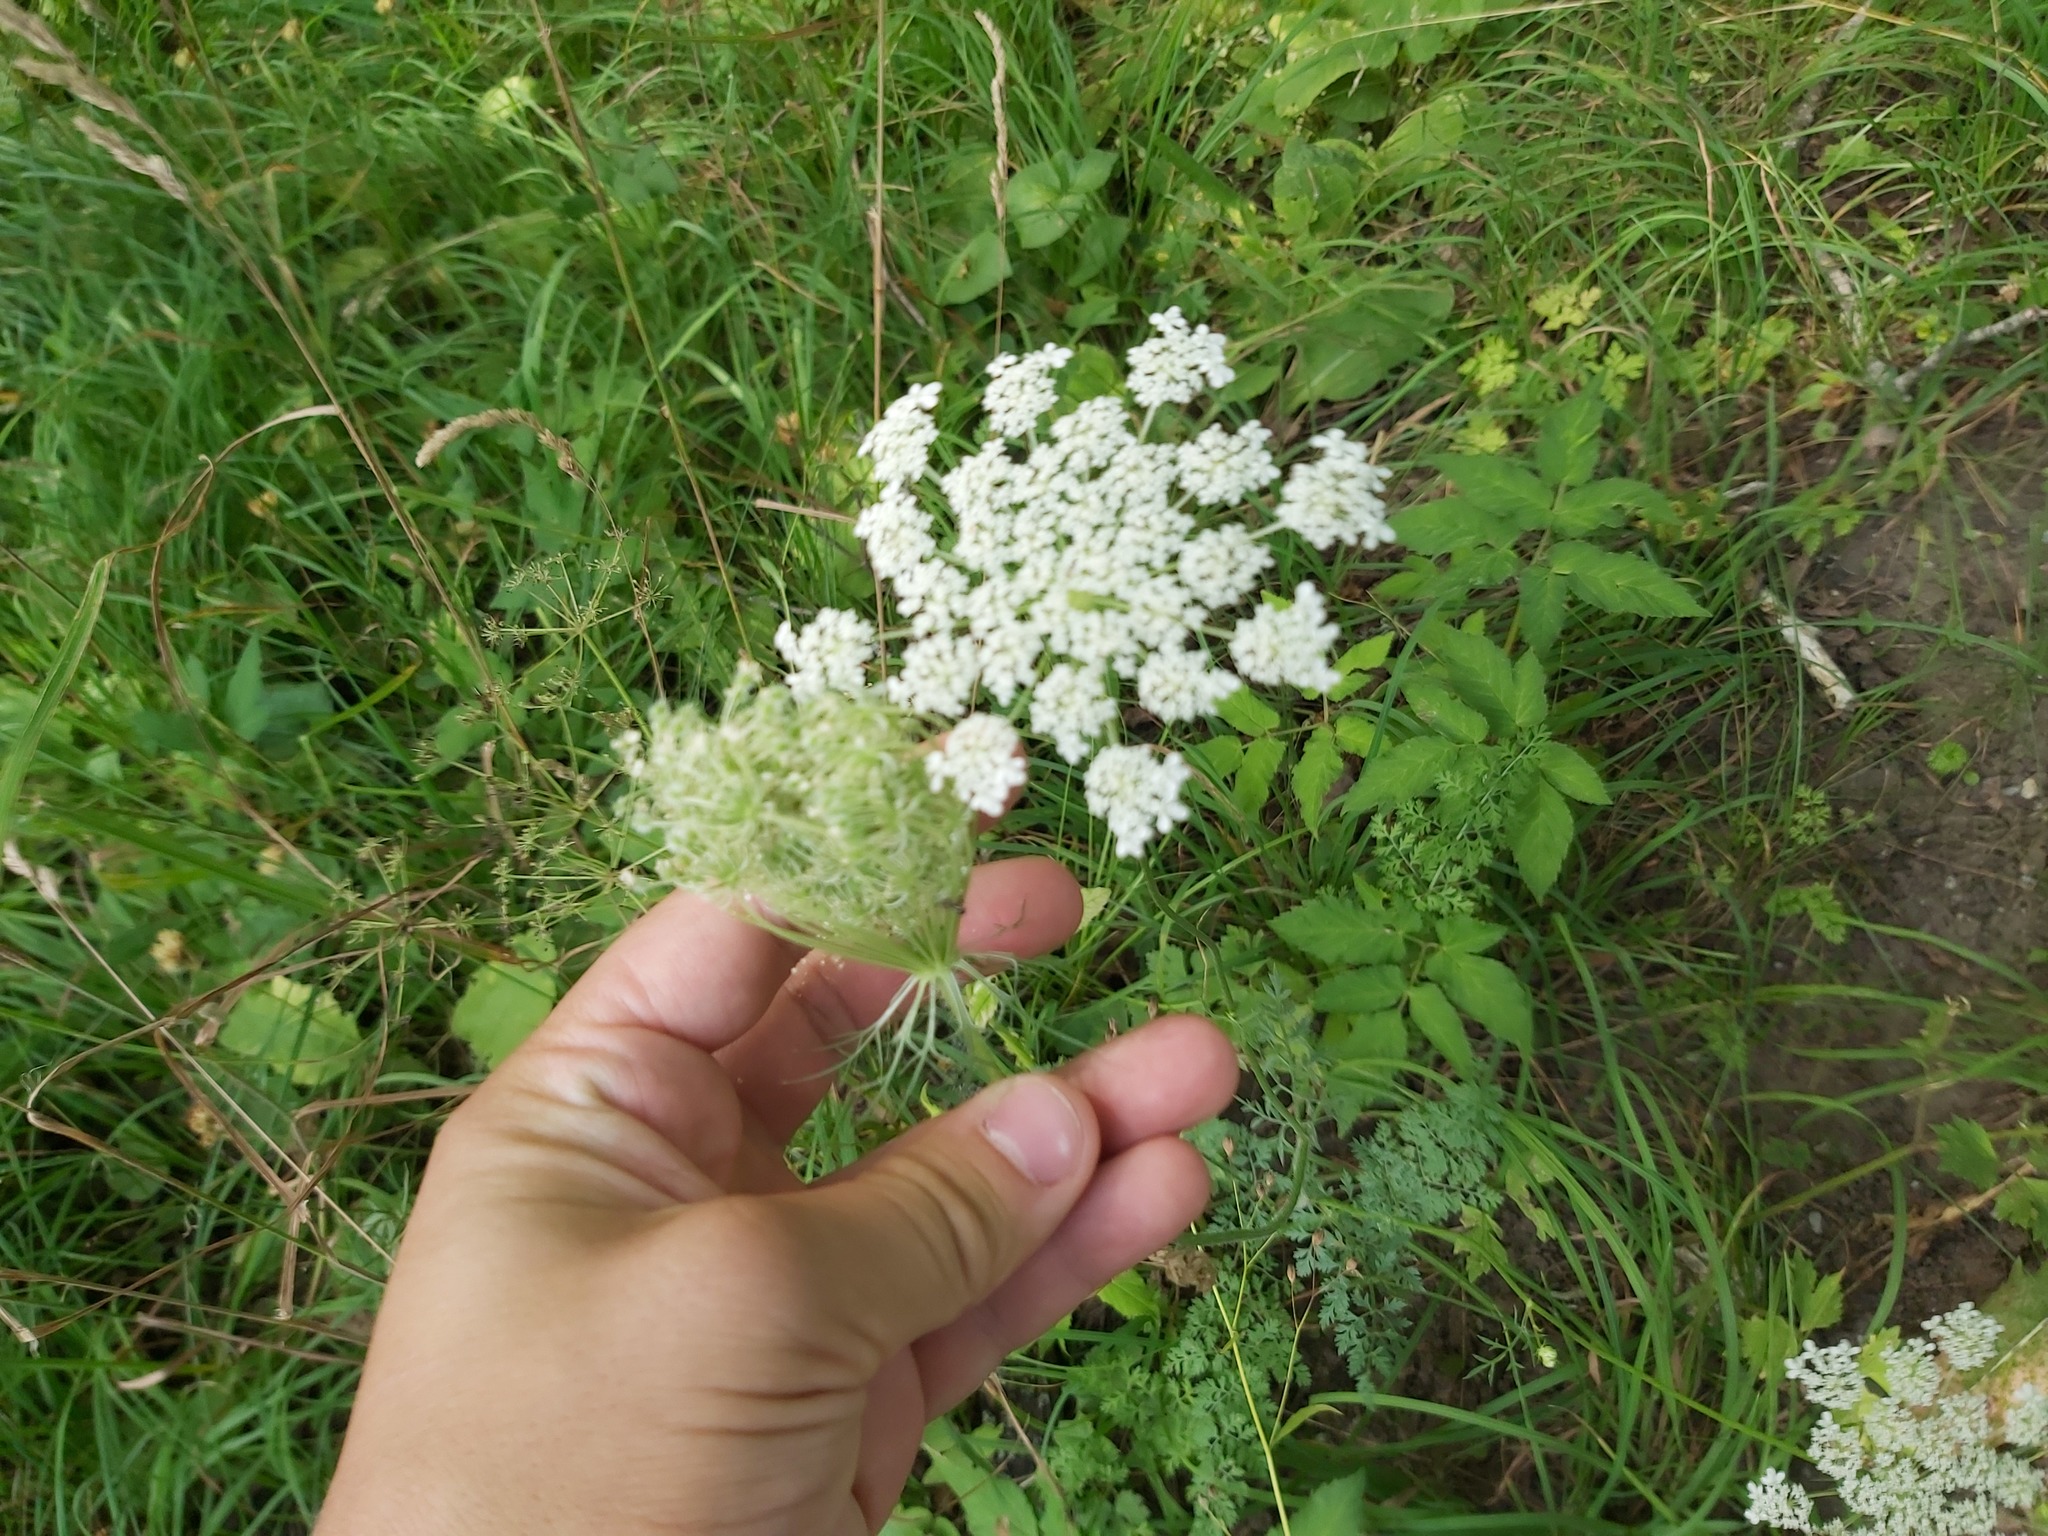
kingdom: Plantae
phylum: Tracheophyta
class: Magnoliopsida
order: Apiales
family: Apiaceae
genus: Daucus
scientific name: Daucus carota
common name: Wild carrot
